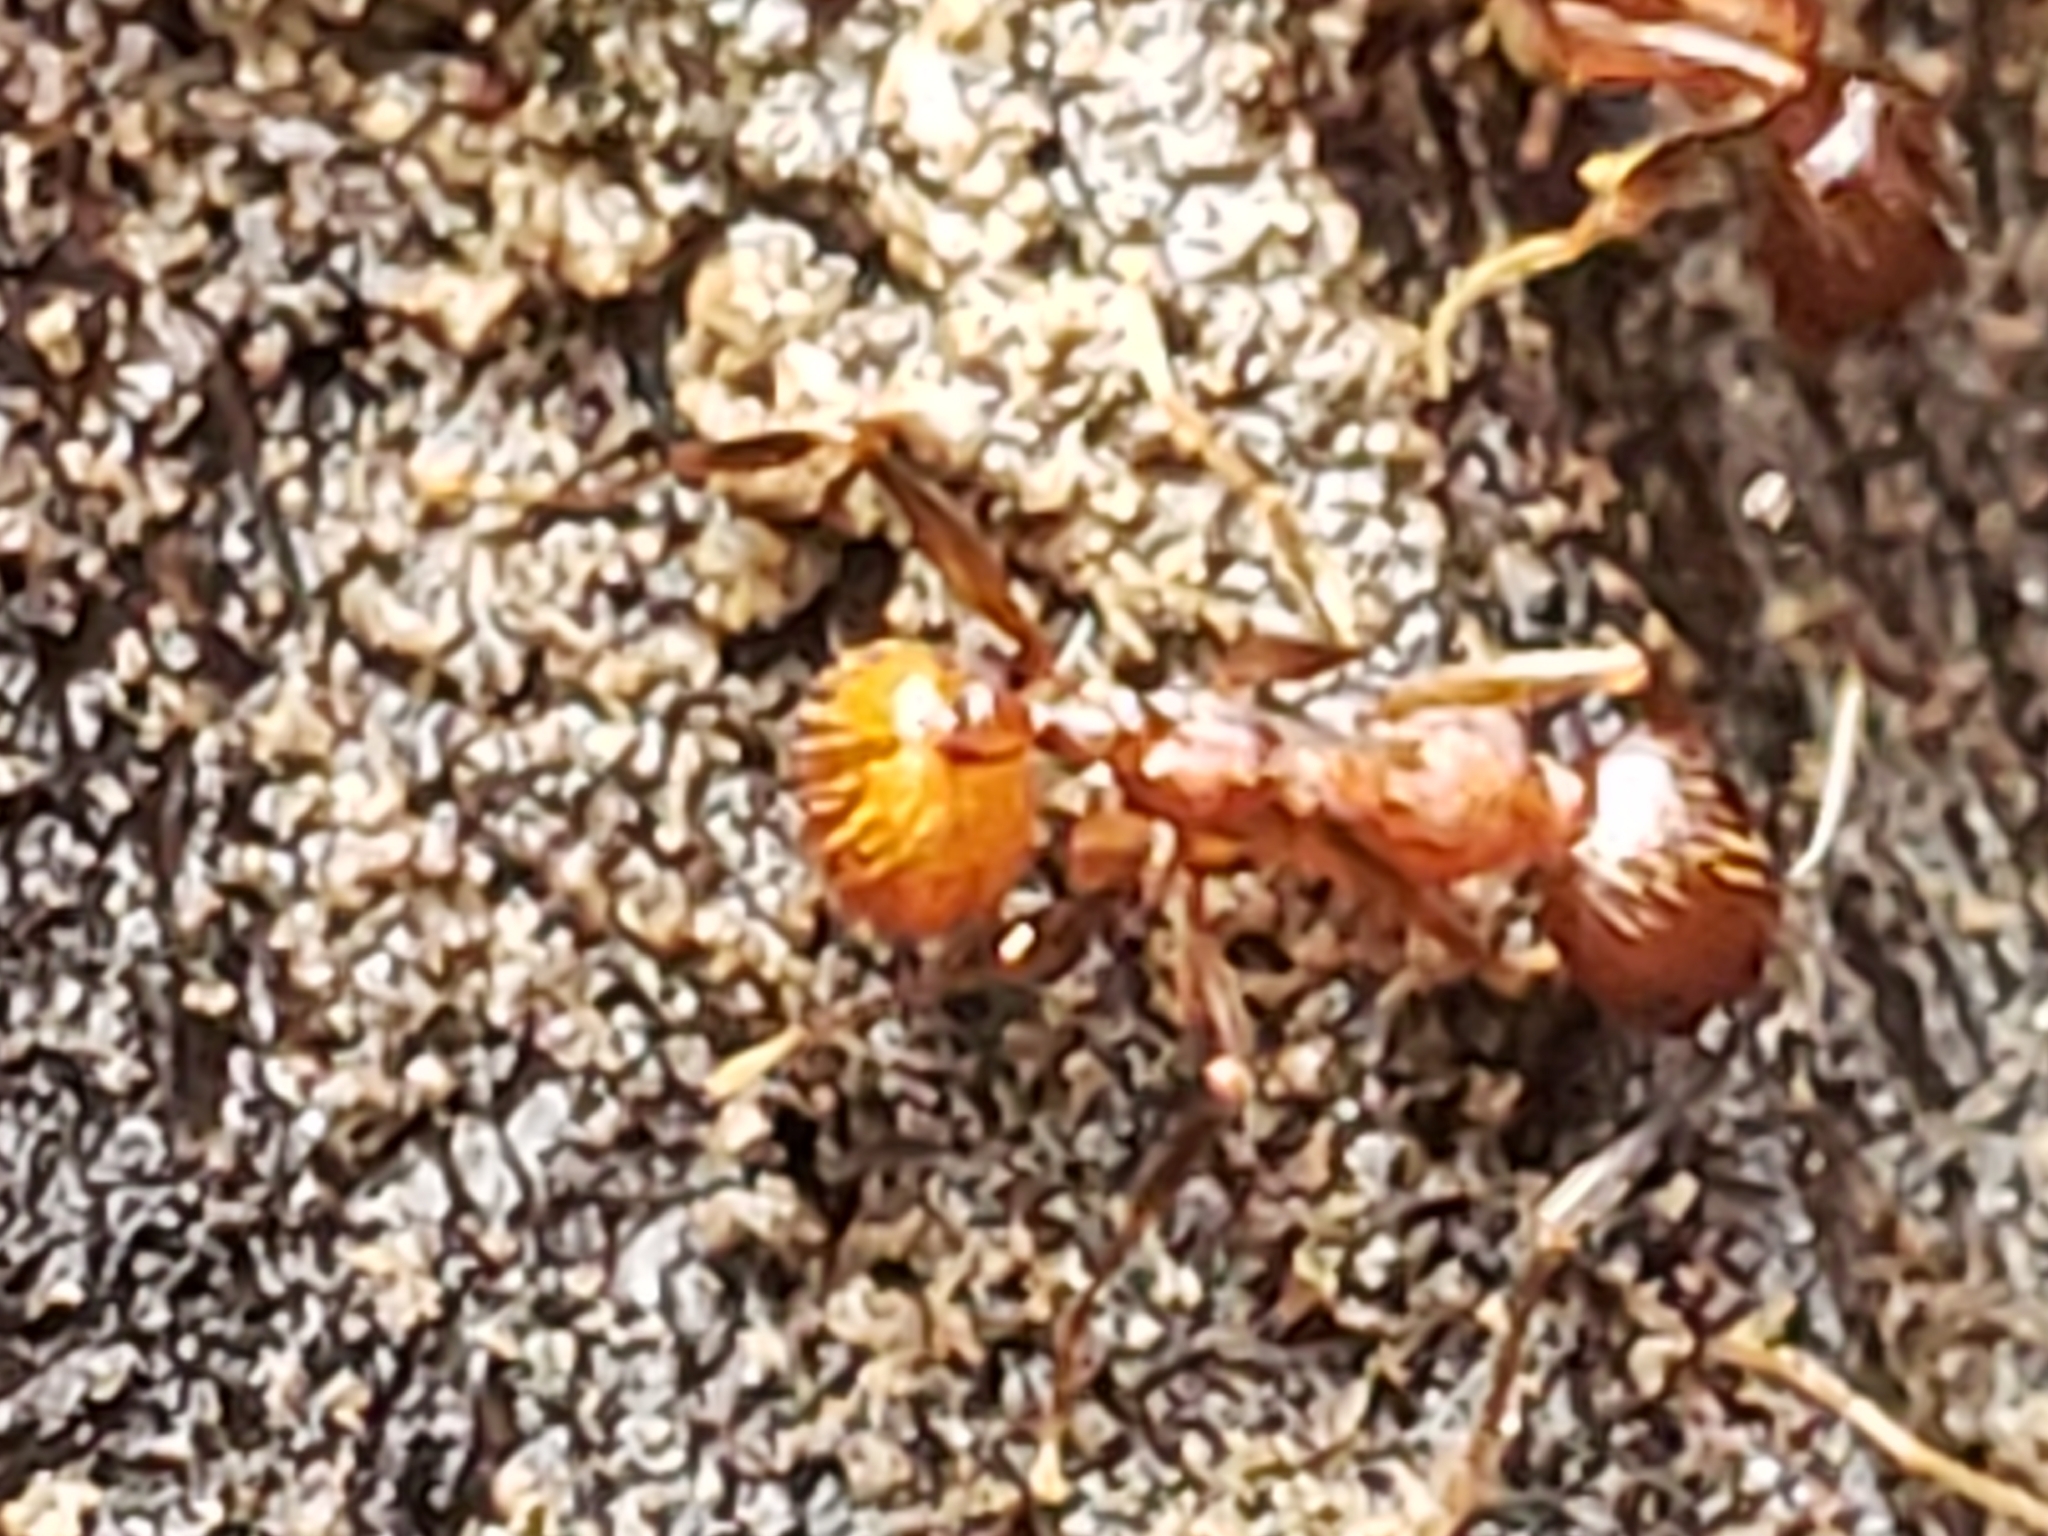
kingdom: Animalia
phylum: Arthropoda
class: Insecta
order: Hymenoptera
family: Formicidae
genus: Aphaenogaster
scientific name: Aphaenogaster fulva
